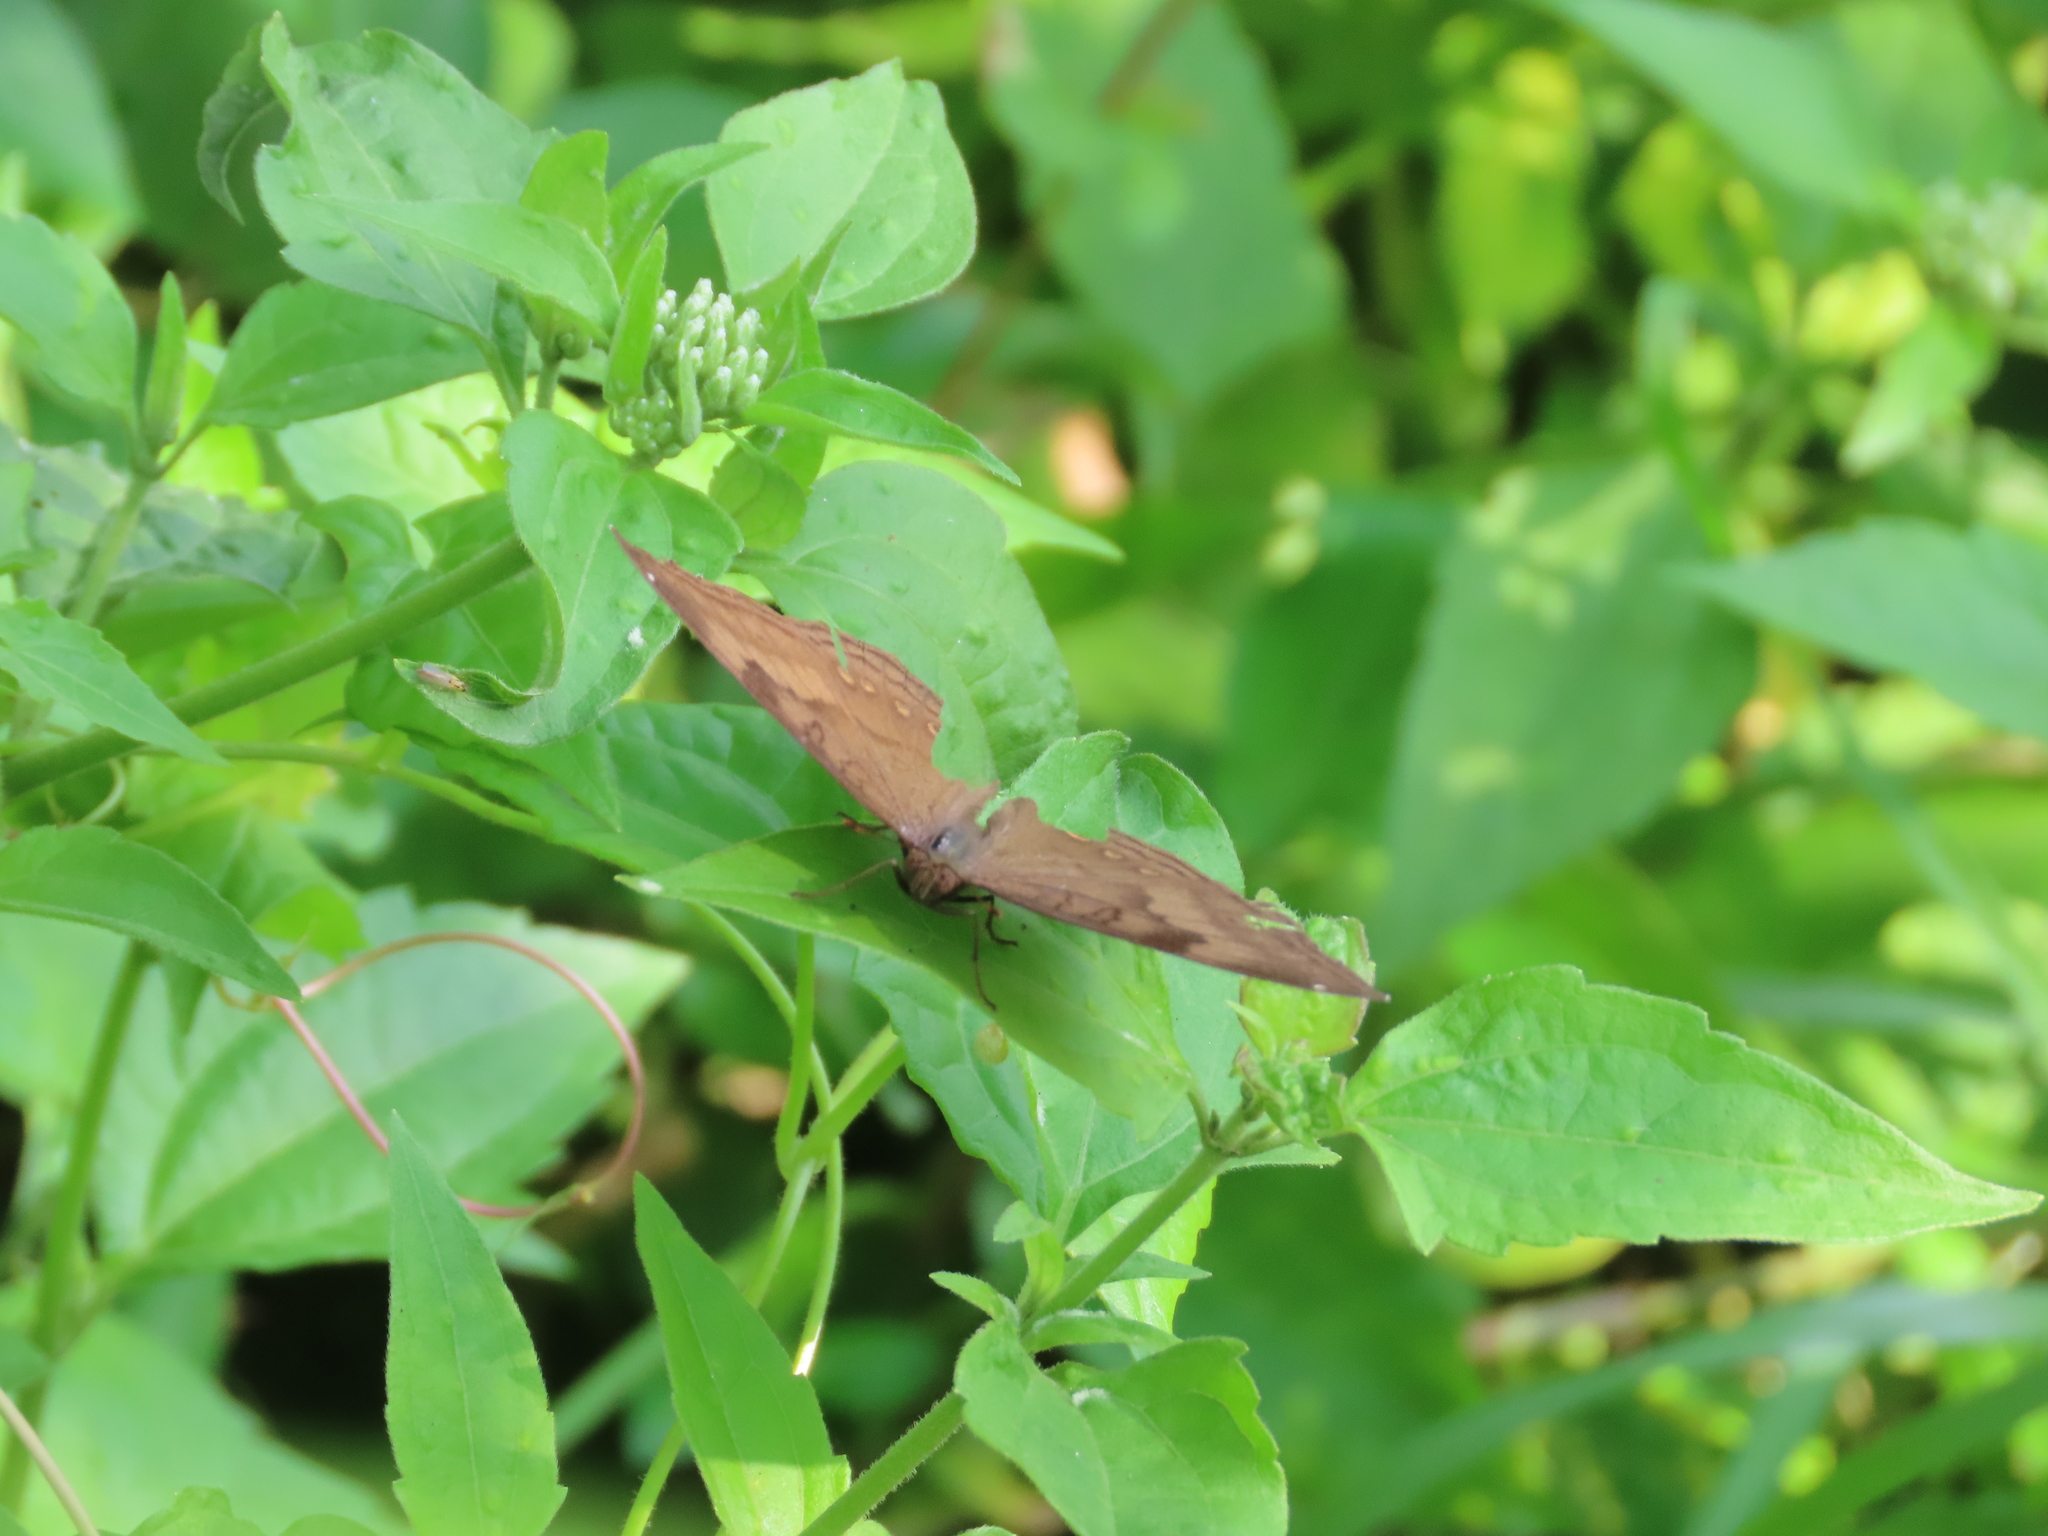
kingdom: Animalia
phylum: Arthropoda
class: Insecta
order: Lepidoptera
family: Nymphalidae
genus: Junonia
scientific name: Junonia iphita
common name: Chocolate pansy
